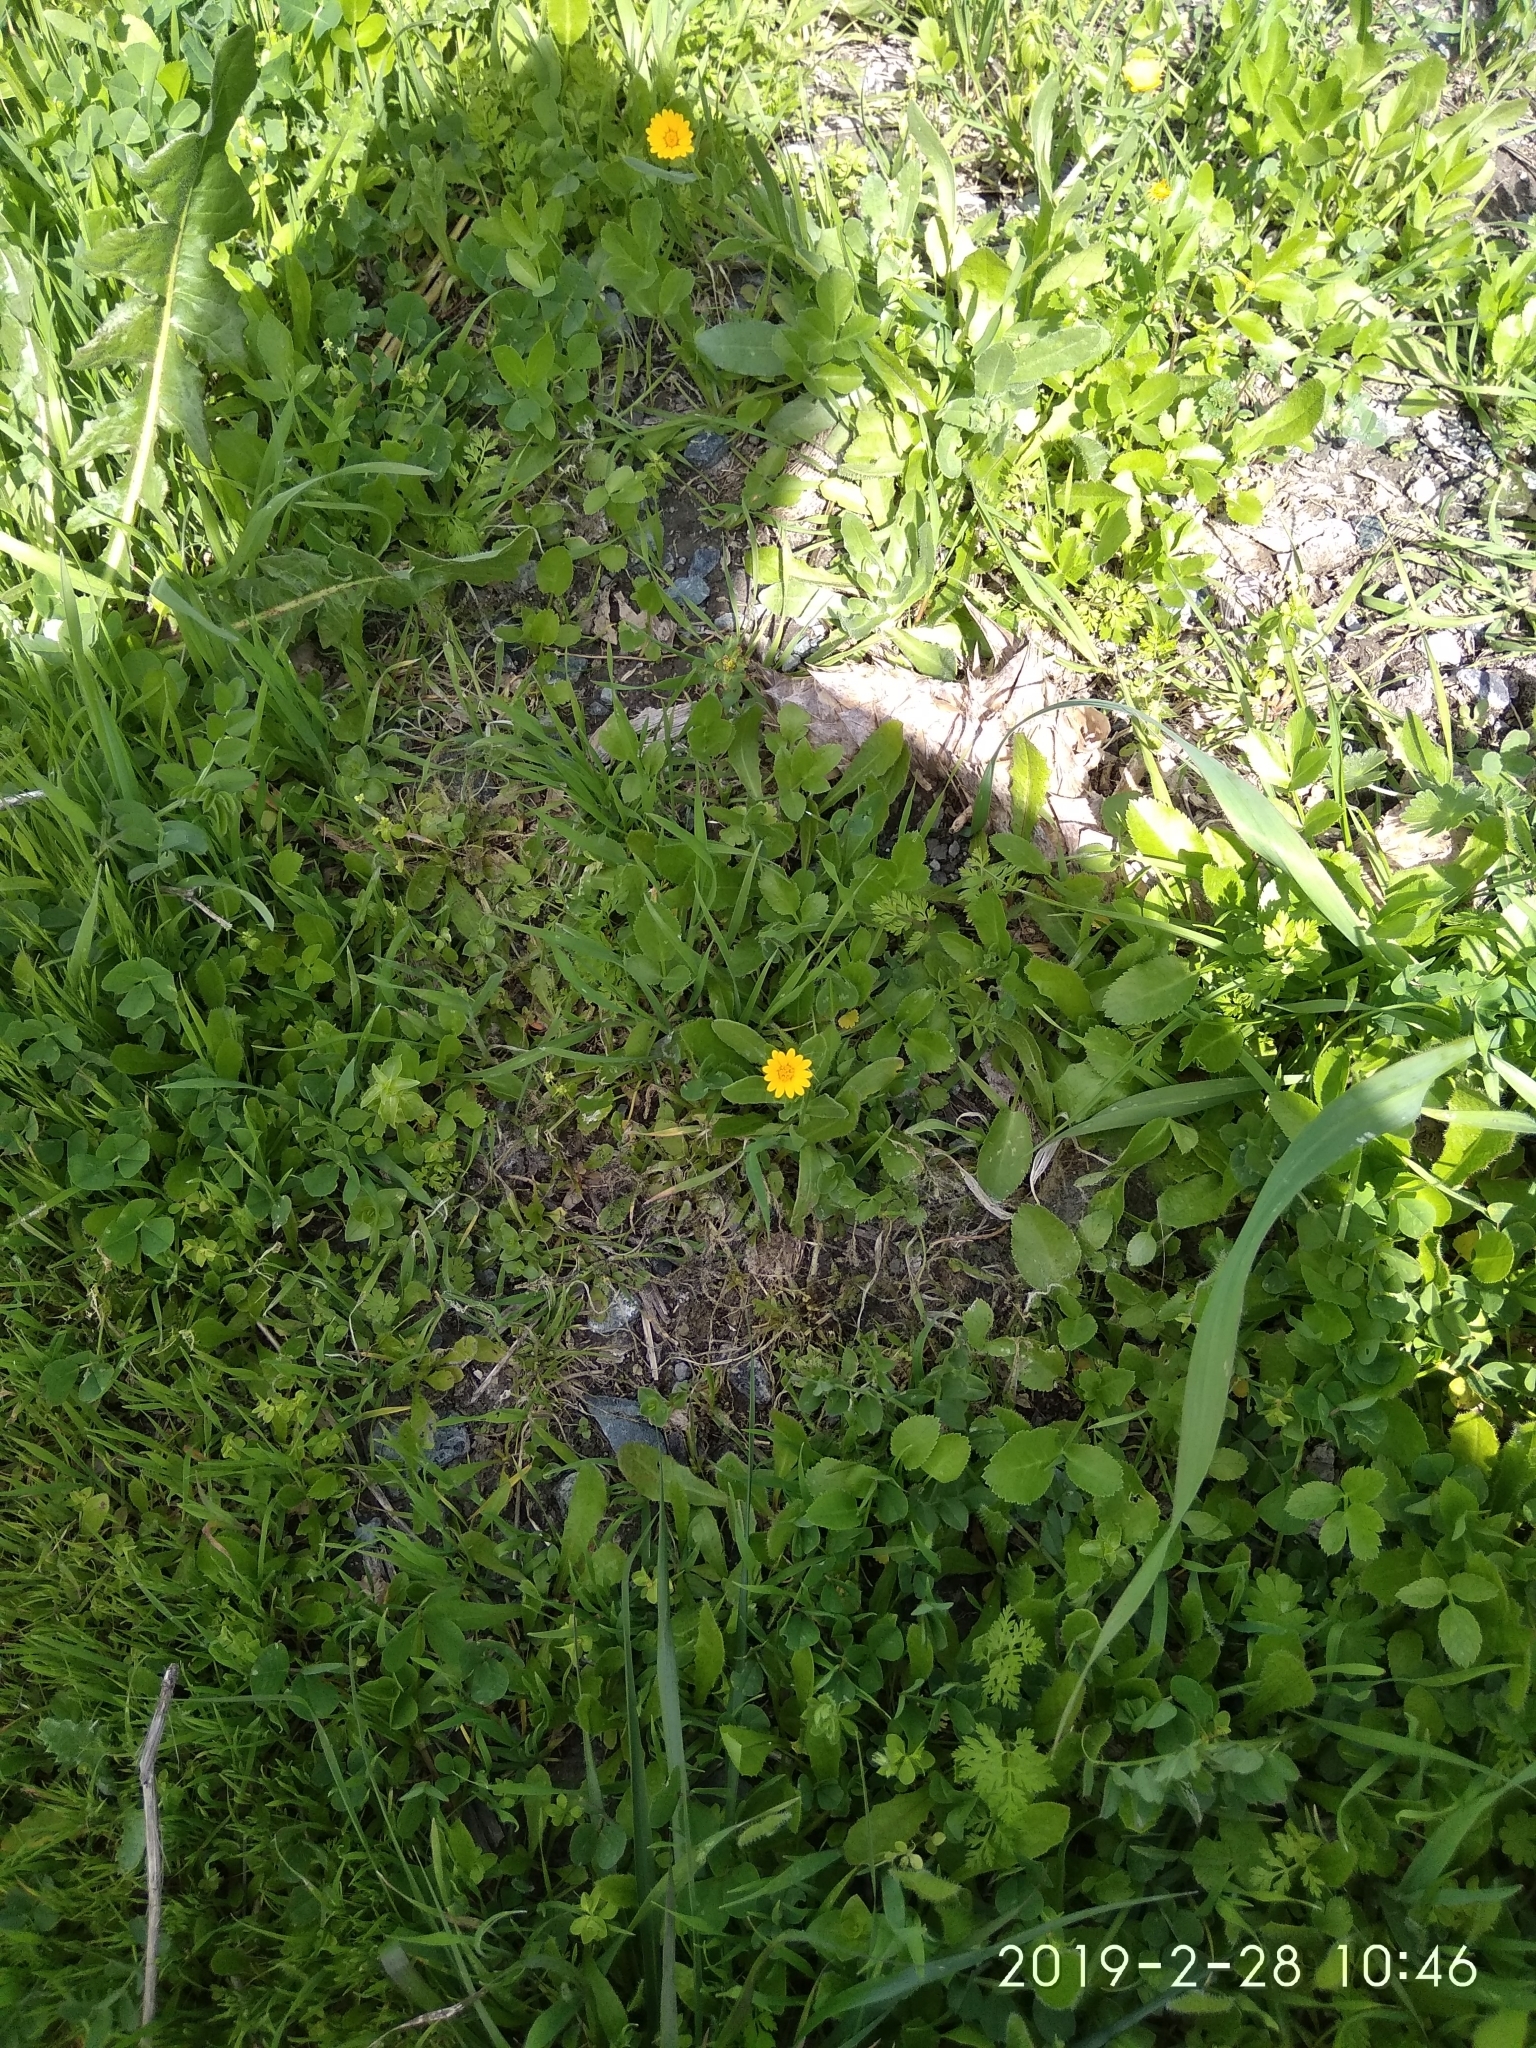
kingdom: Plantae
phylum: Tracheophyta
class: Magnoliopsida
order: Asterales
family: Asteraceae
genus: Calendula
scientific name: Calendula arvensis
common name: Field marigold
